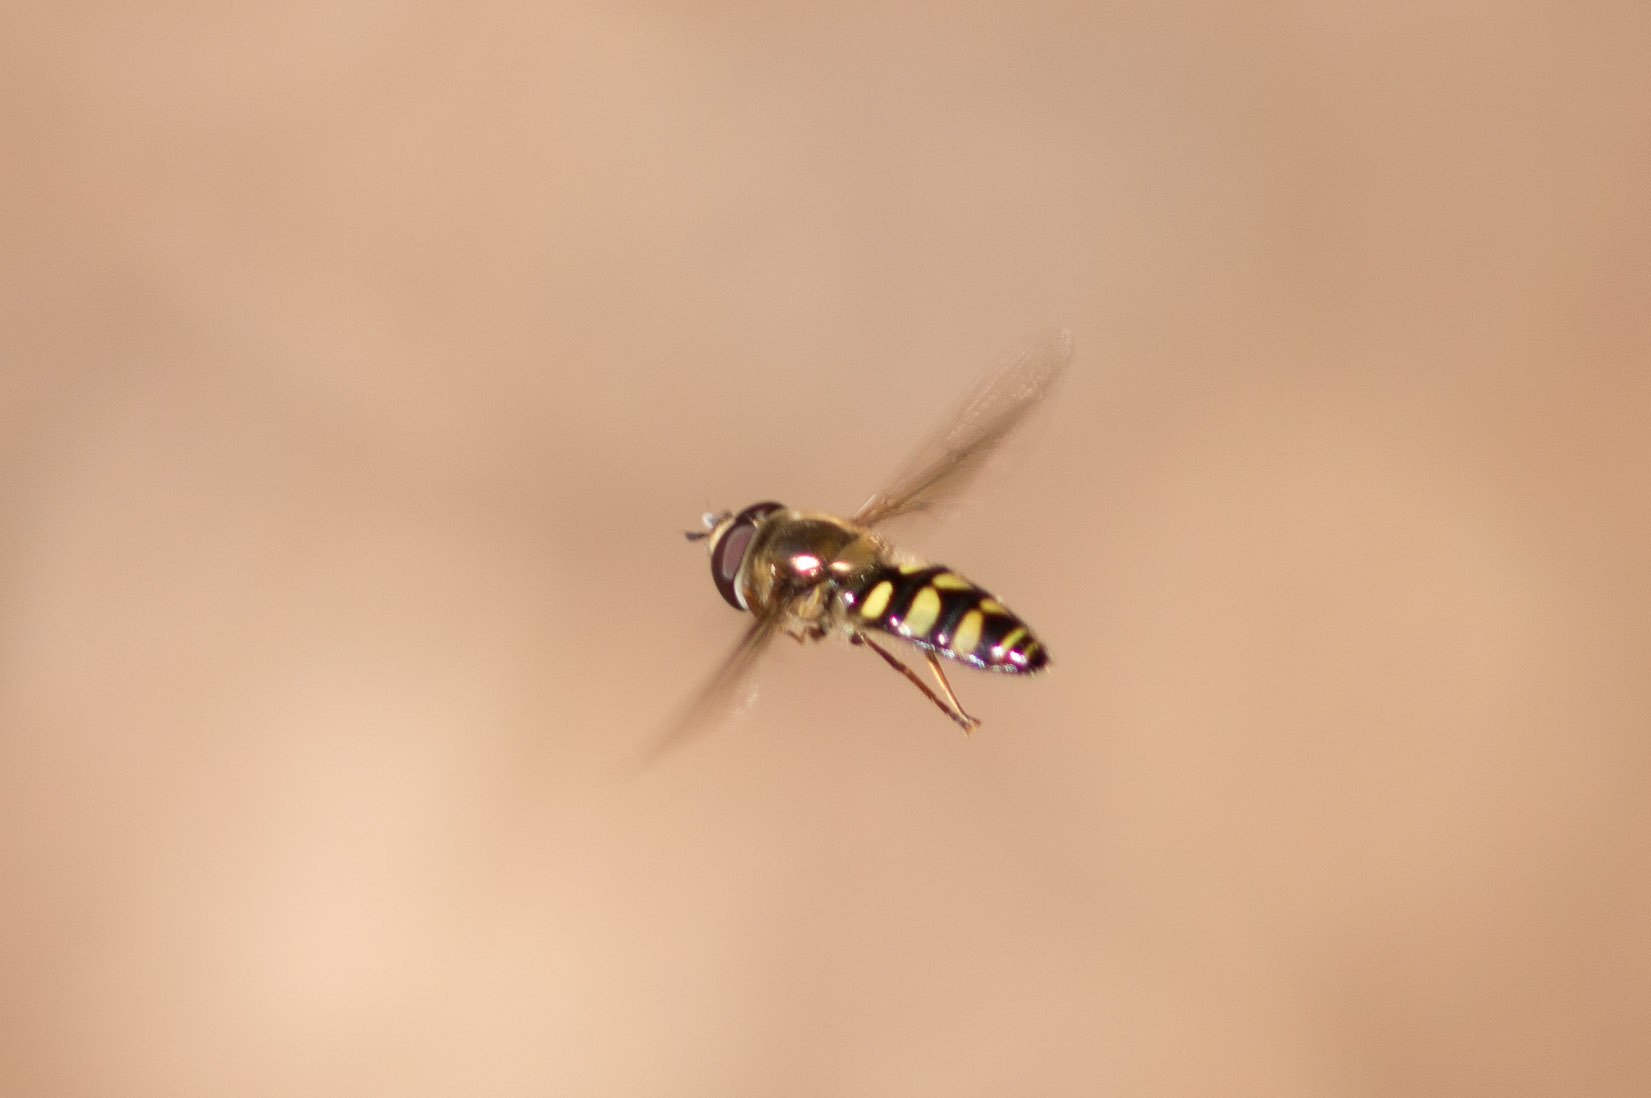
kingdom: Animalia
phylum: Arthropoda
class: Insecta
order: Diptera
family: Syrphidae
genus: Eupeodes
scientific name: Eupeodes fumipennis
